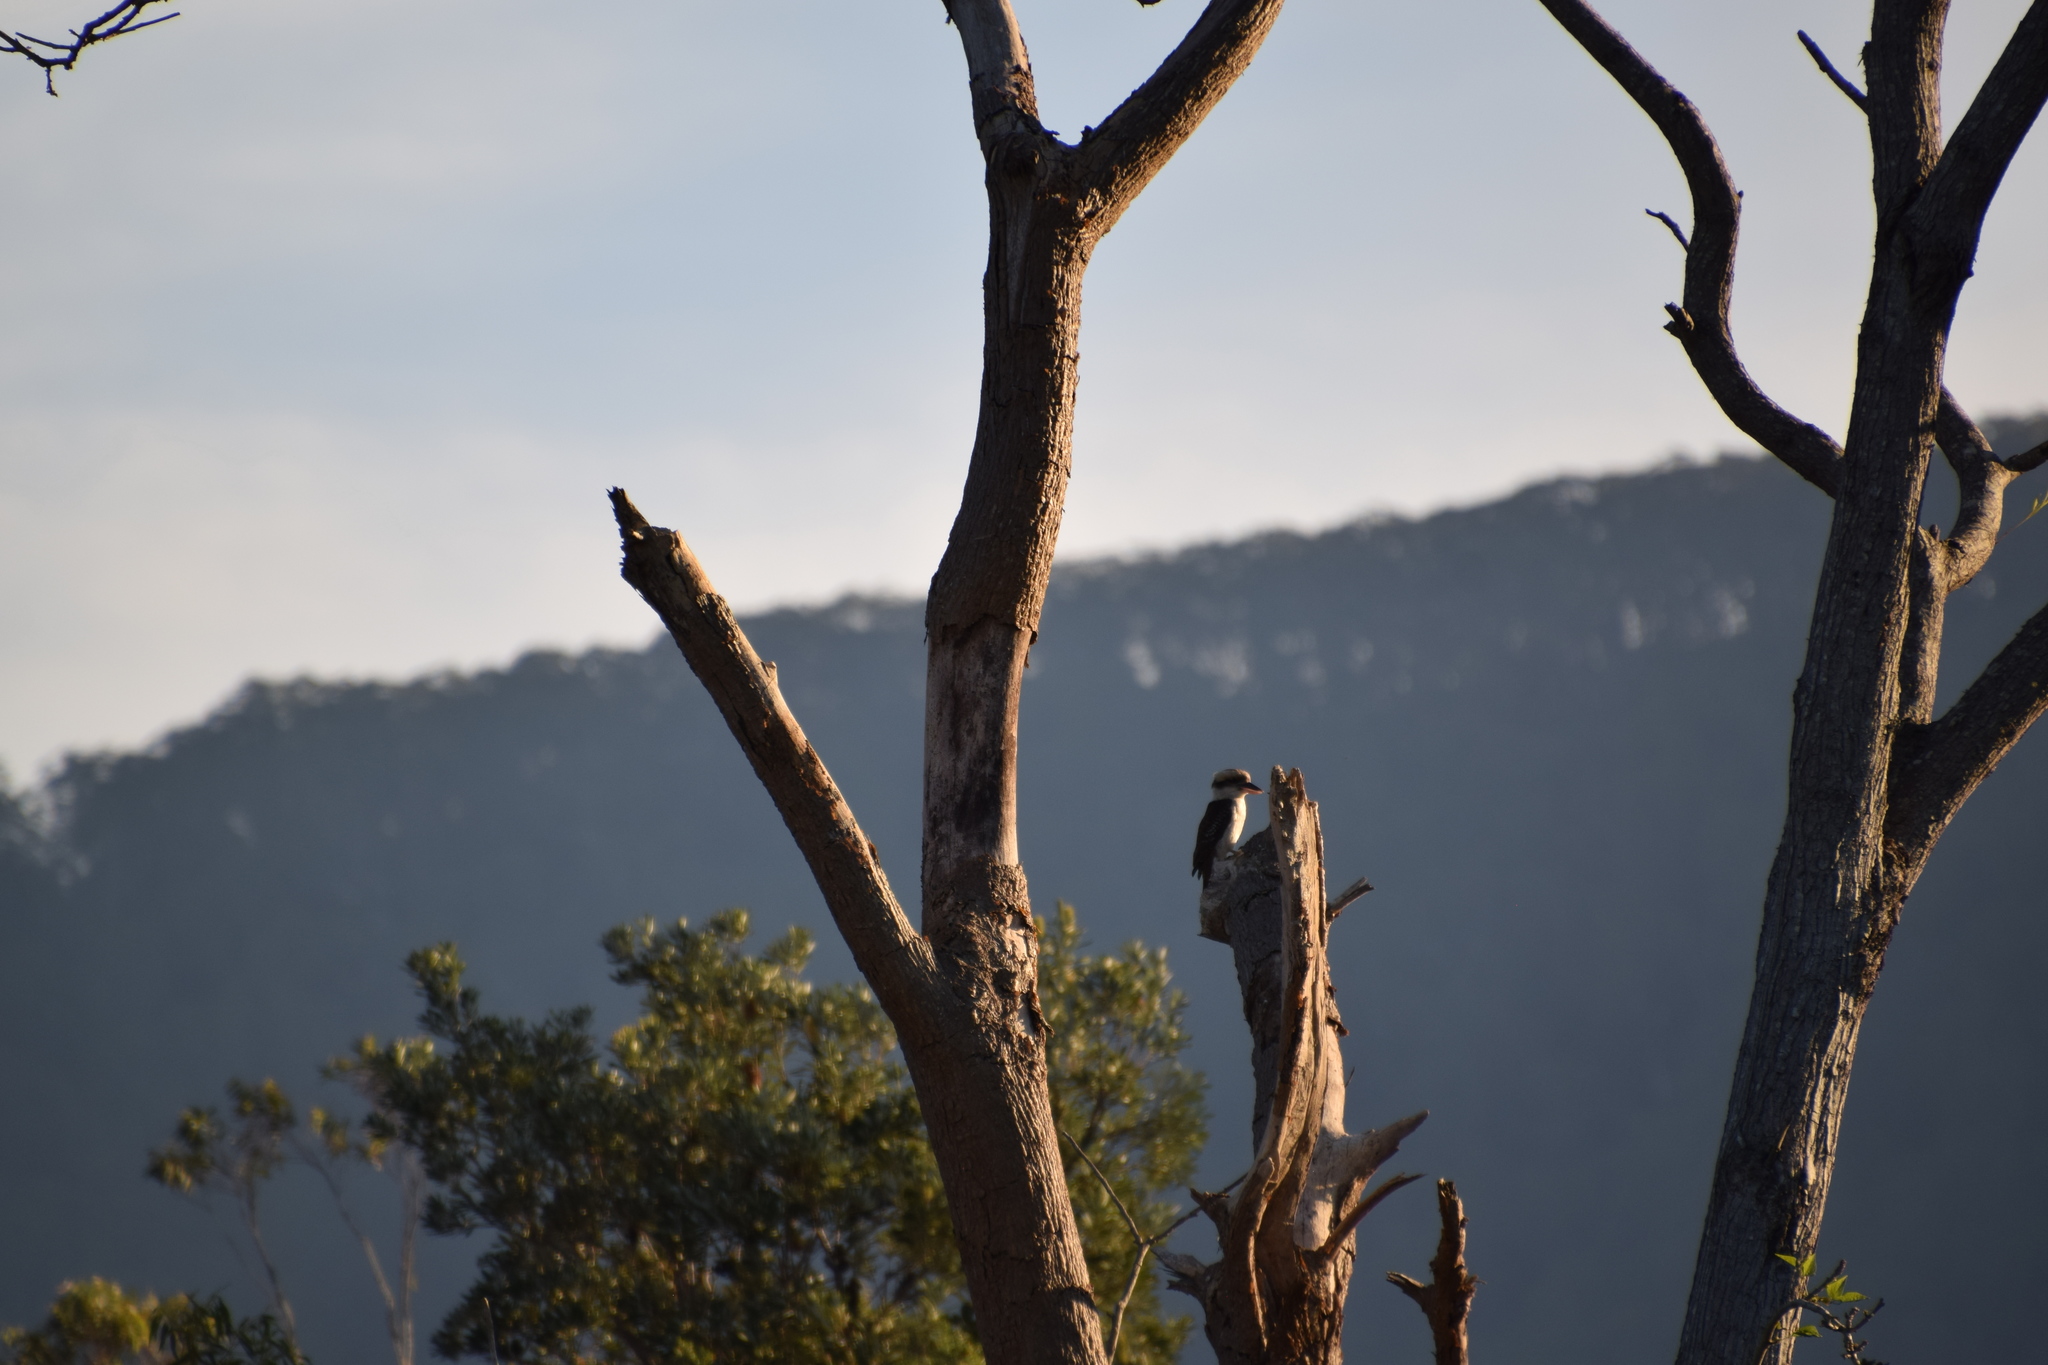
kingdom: Animalia
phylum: Chordata
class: Aves
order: Coraciiformes
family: Alcedinidae
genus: Dacelo
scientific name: Dacelo novaeguineae
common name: Laughing kookaburra
